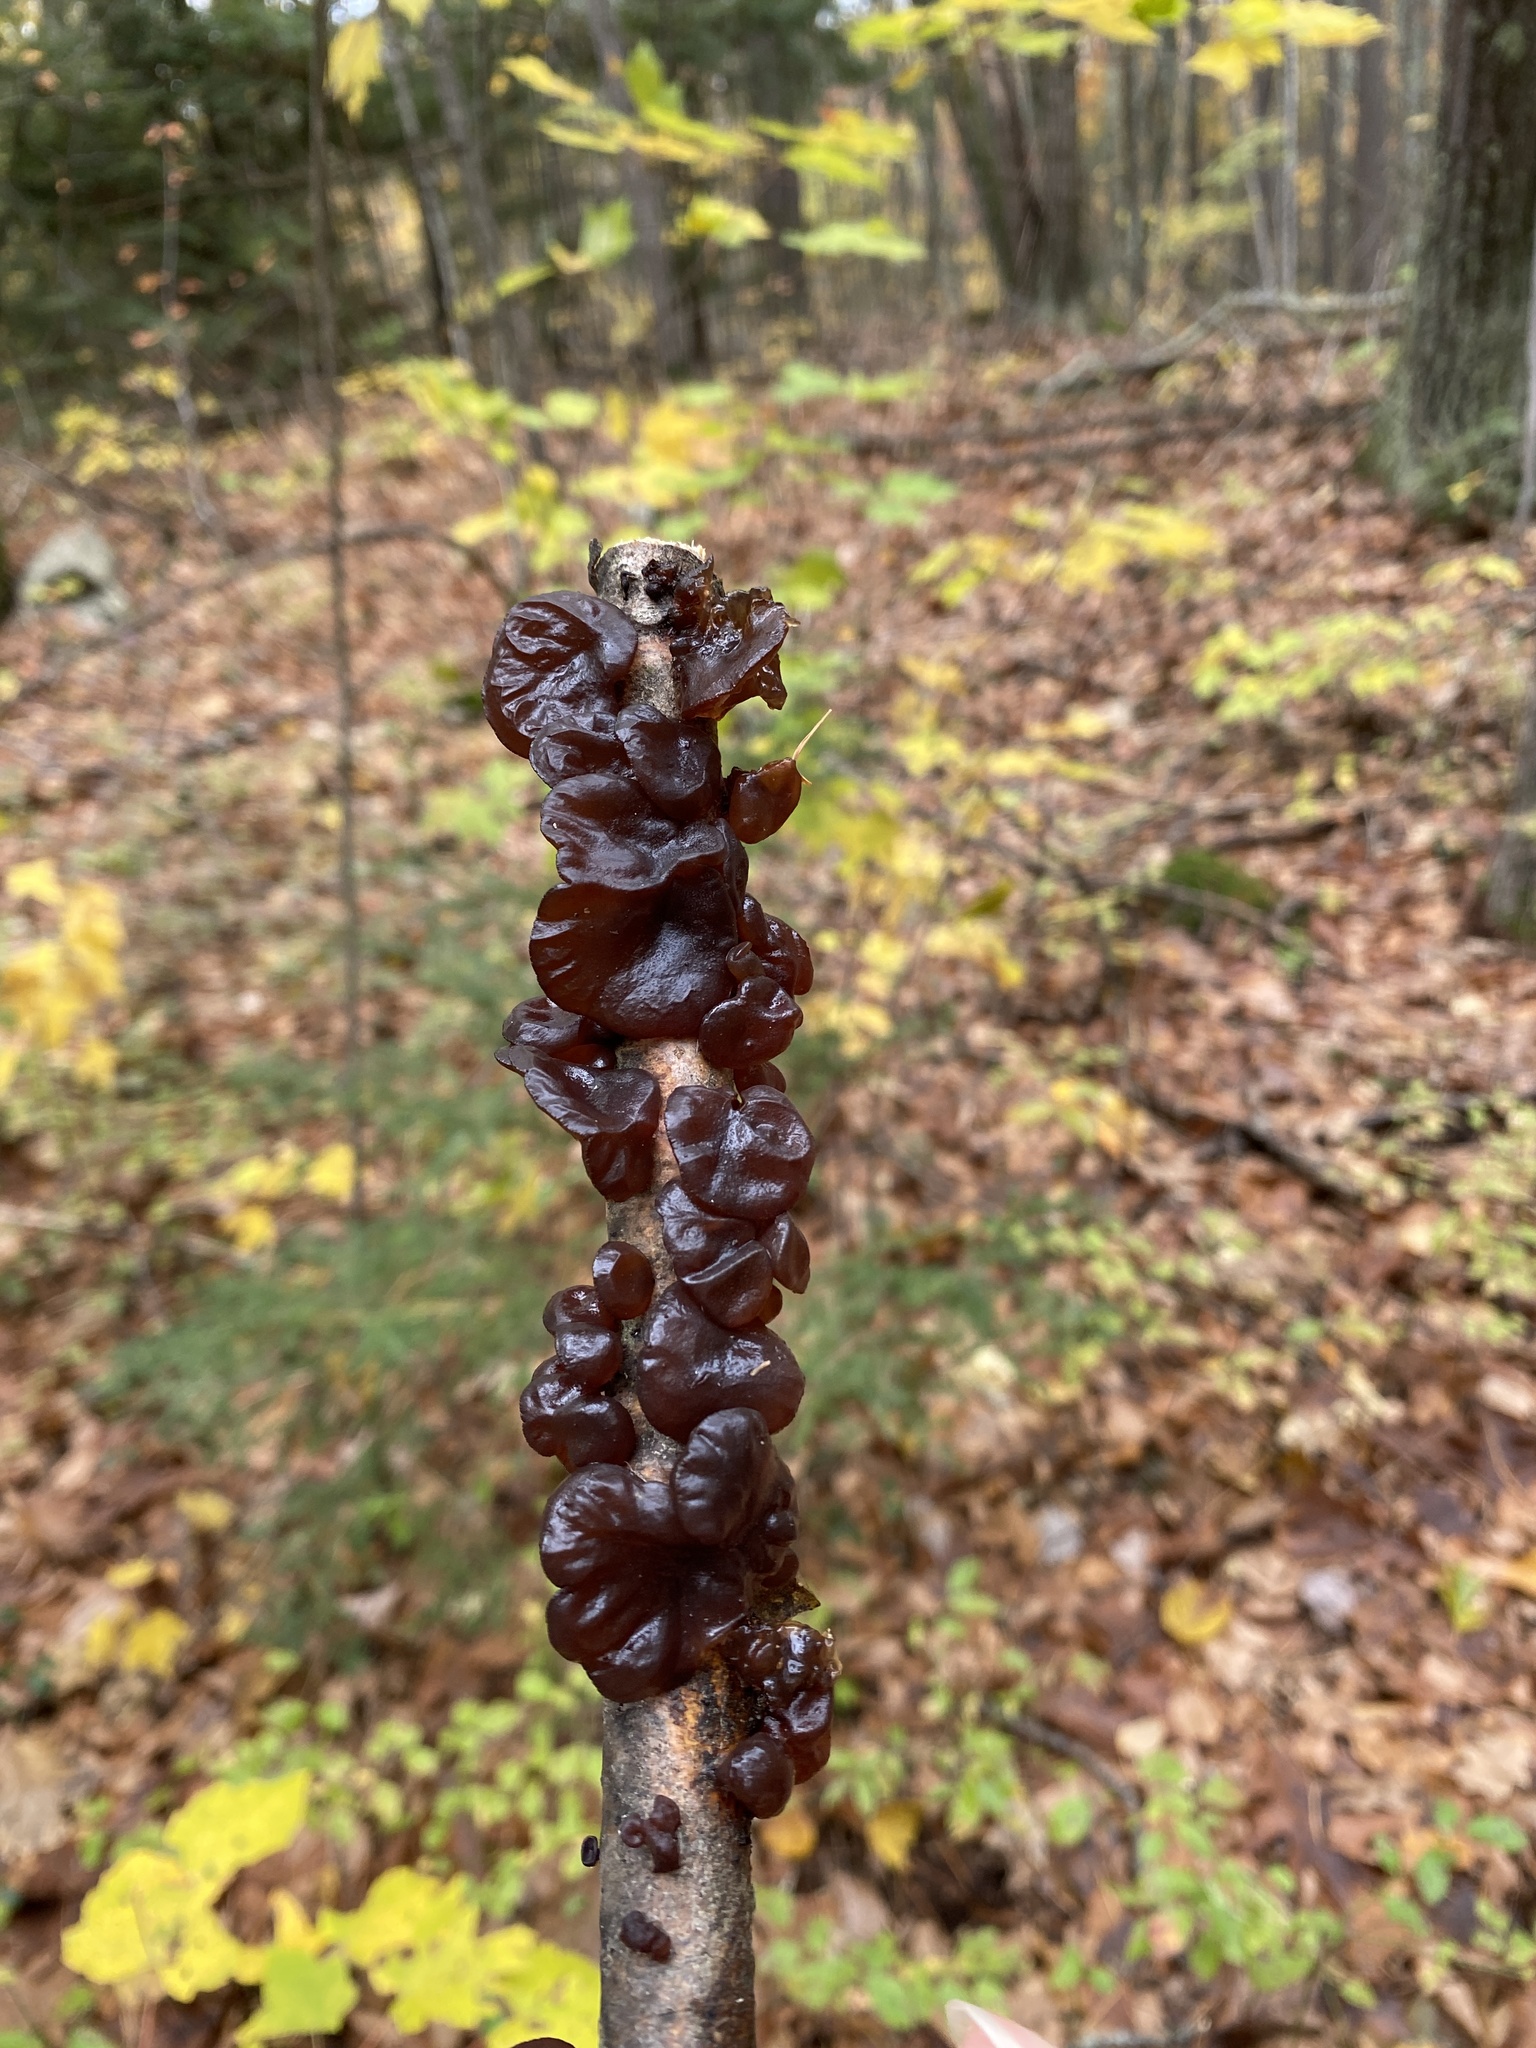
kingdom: Fungi
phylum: Basidiomycota
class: Agaricomycetes
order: Auriculariales
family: Auriculariaceae
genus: Exidia
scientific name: Exidia
